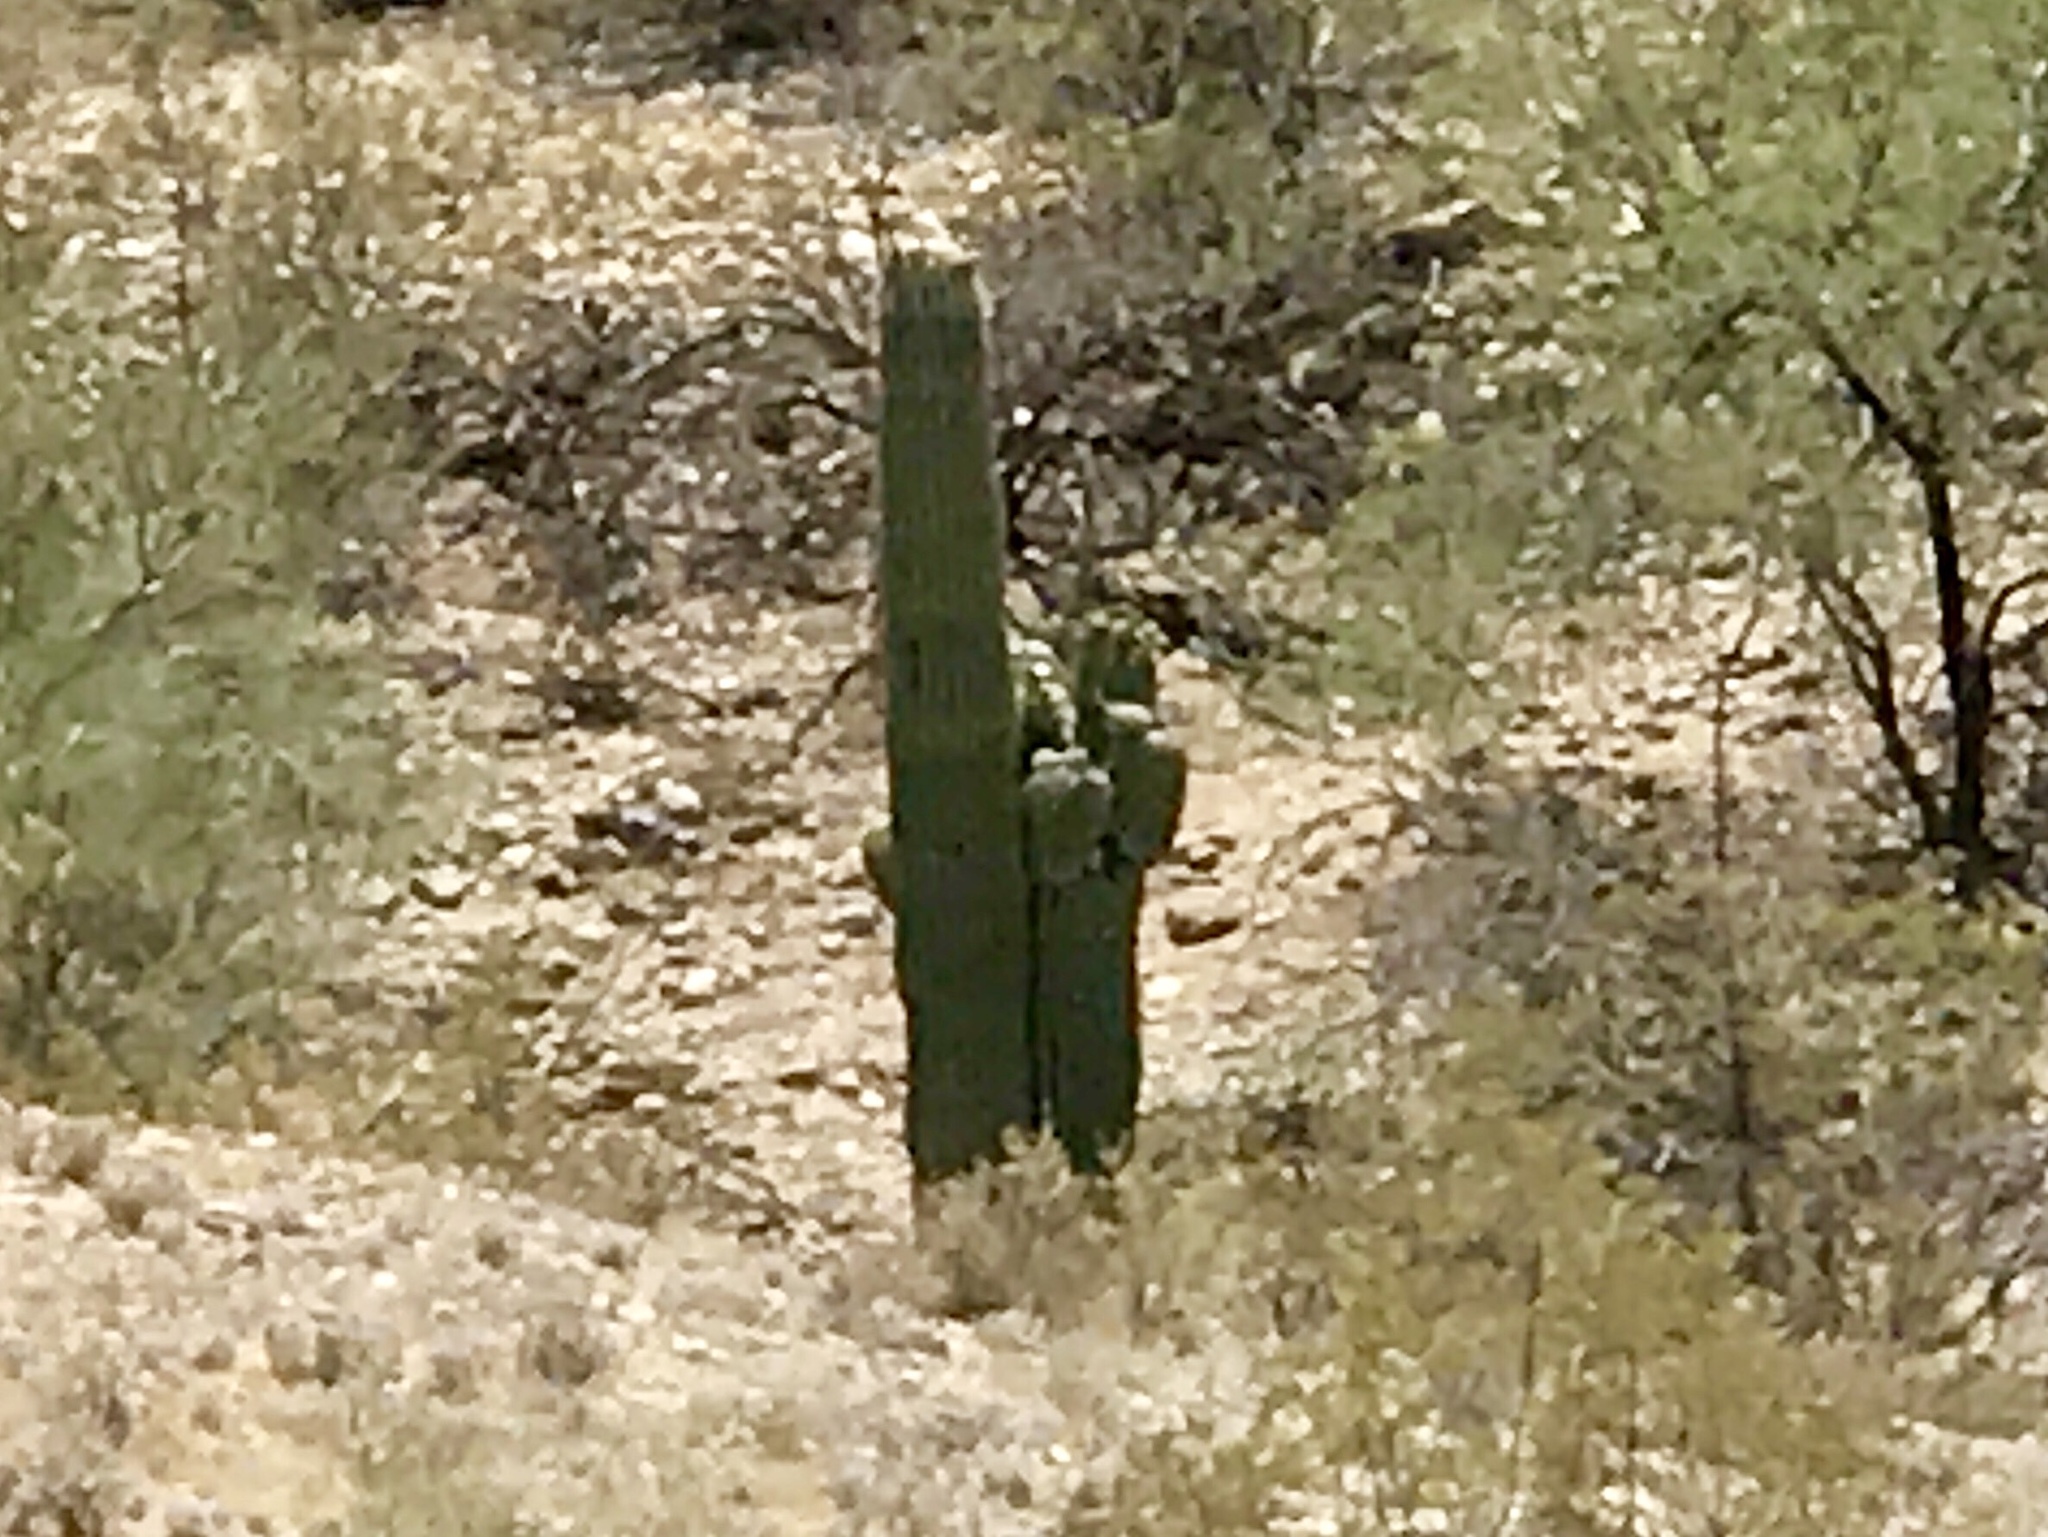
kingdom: Plantae
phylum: Tracheophyta
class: Magnoliopsida
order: Caryophyllales
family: Cactaceae
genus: Carnegiea
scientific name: Carnegiea gigantea
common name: Saguaro
